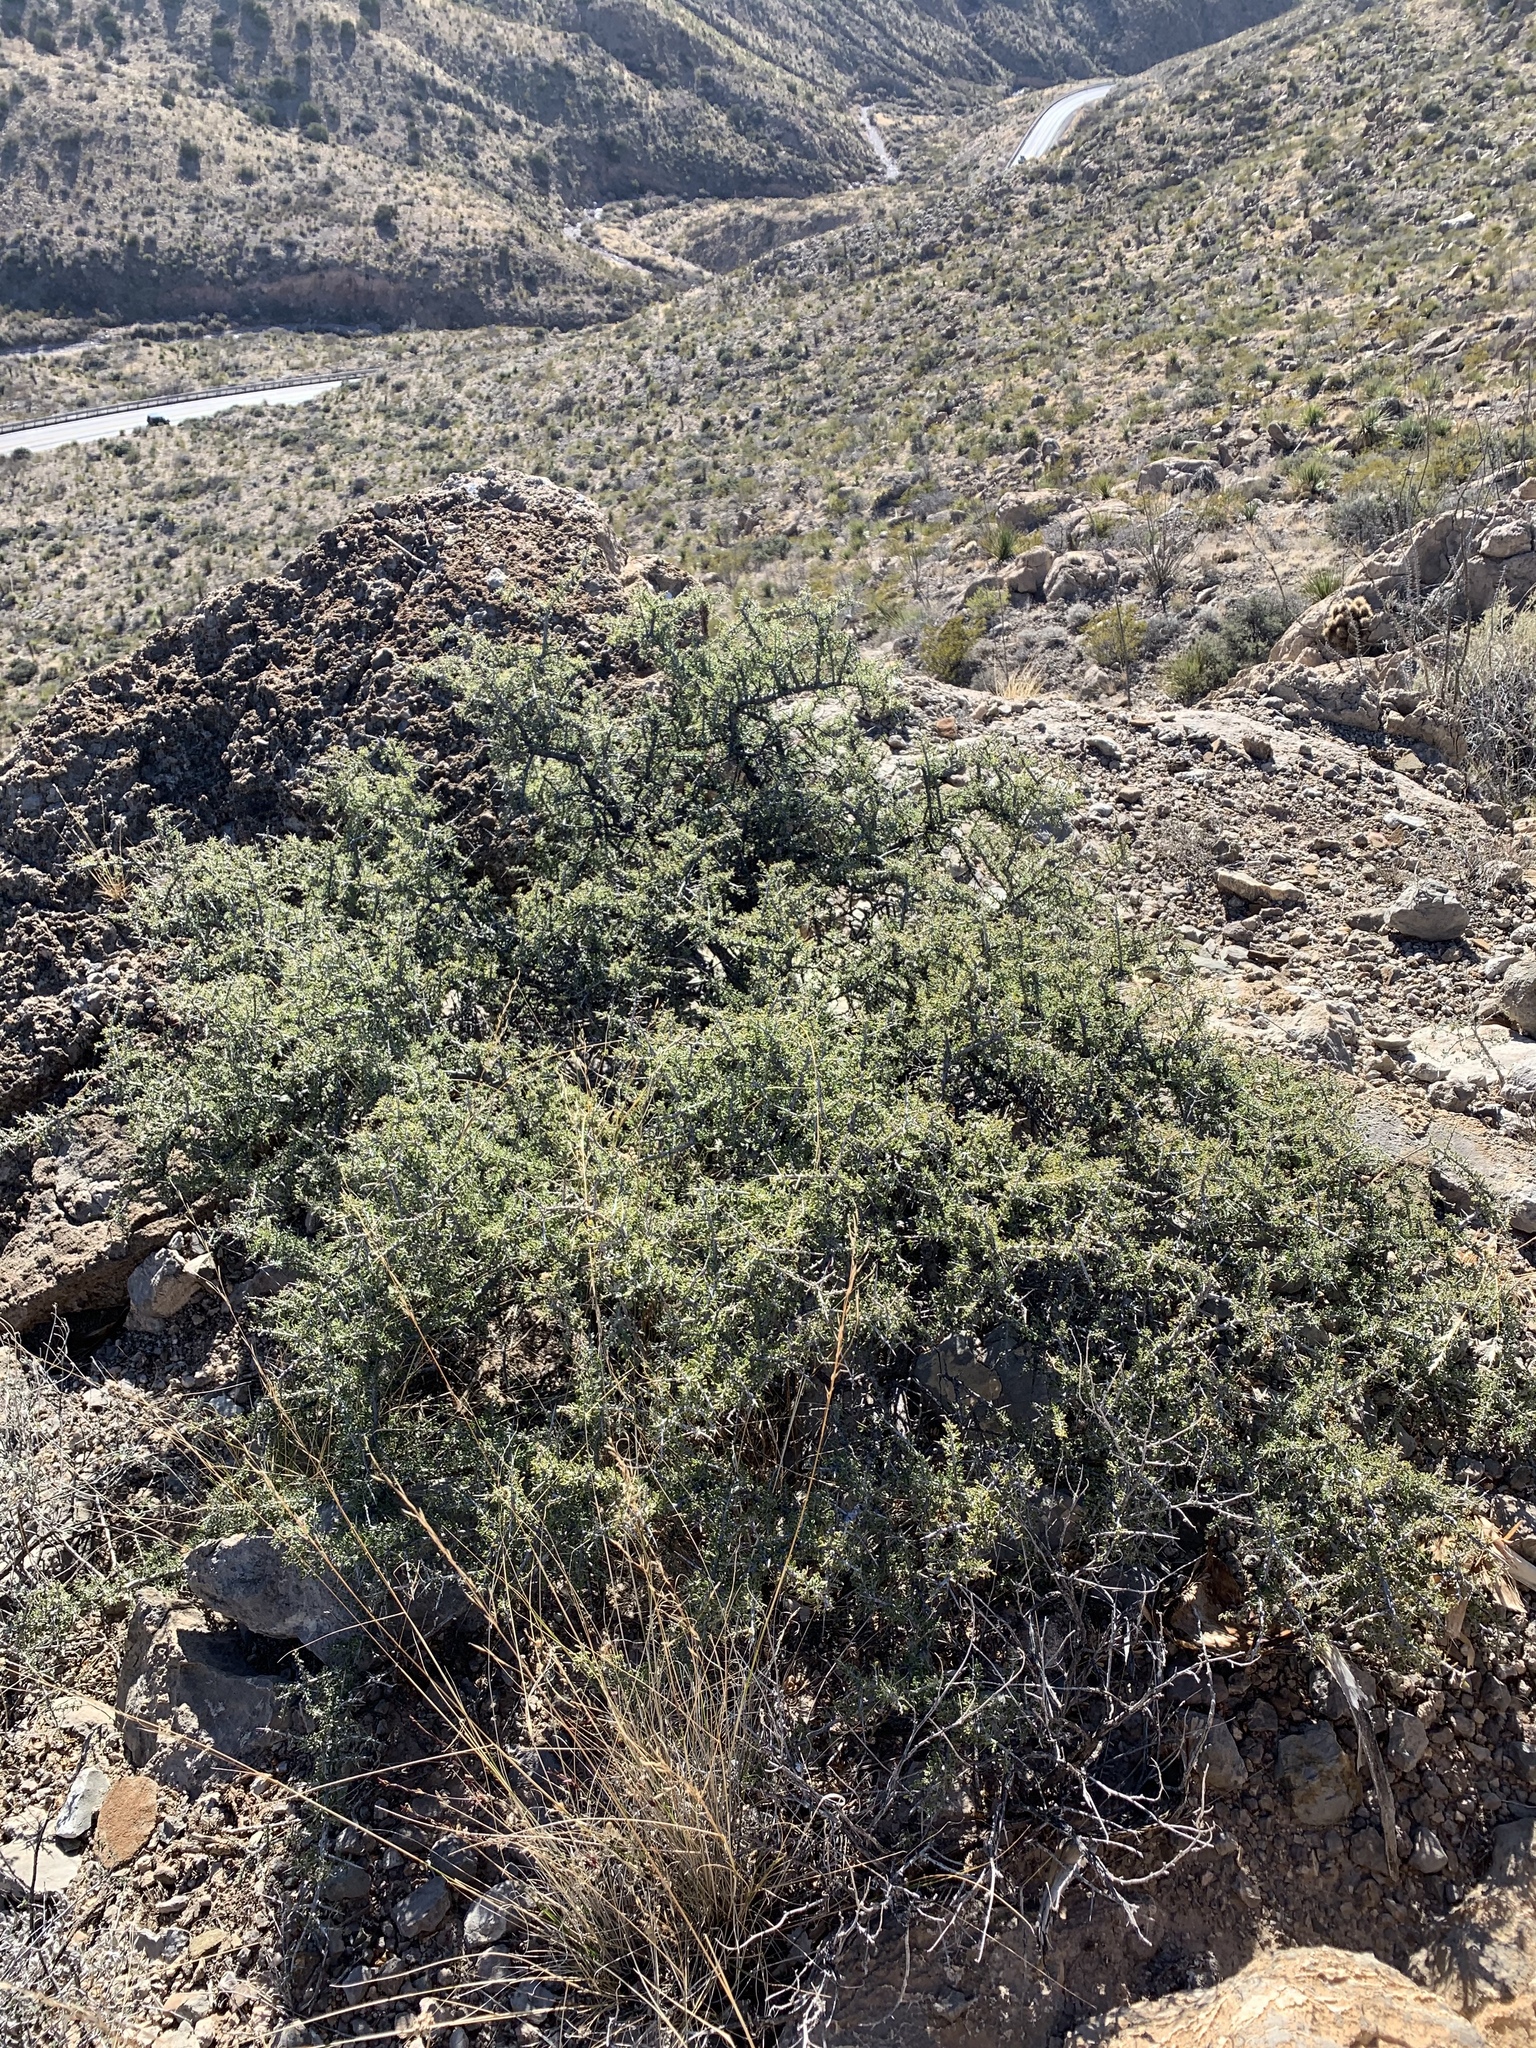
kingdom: Plantae
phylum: Tracheophyta
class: Magnoliopsida
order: Rosales
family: Rhamnaceae
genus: Condalia
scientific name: Condalia warnockii
